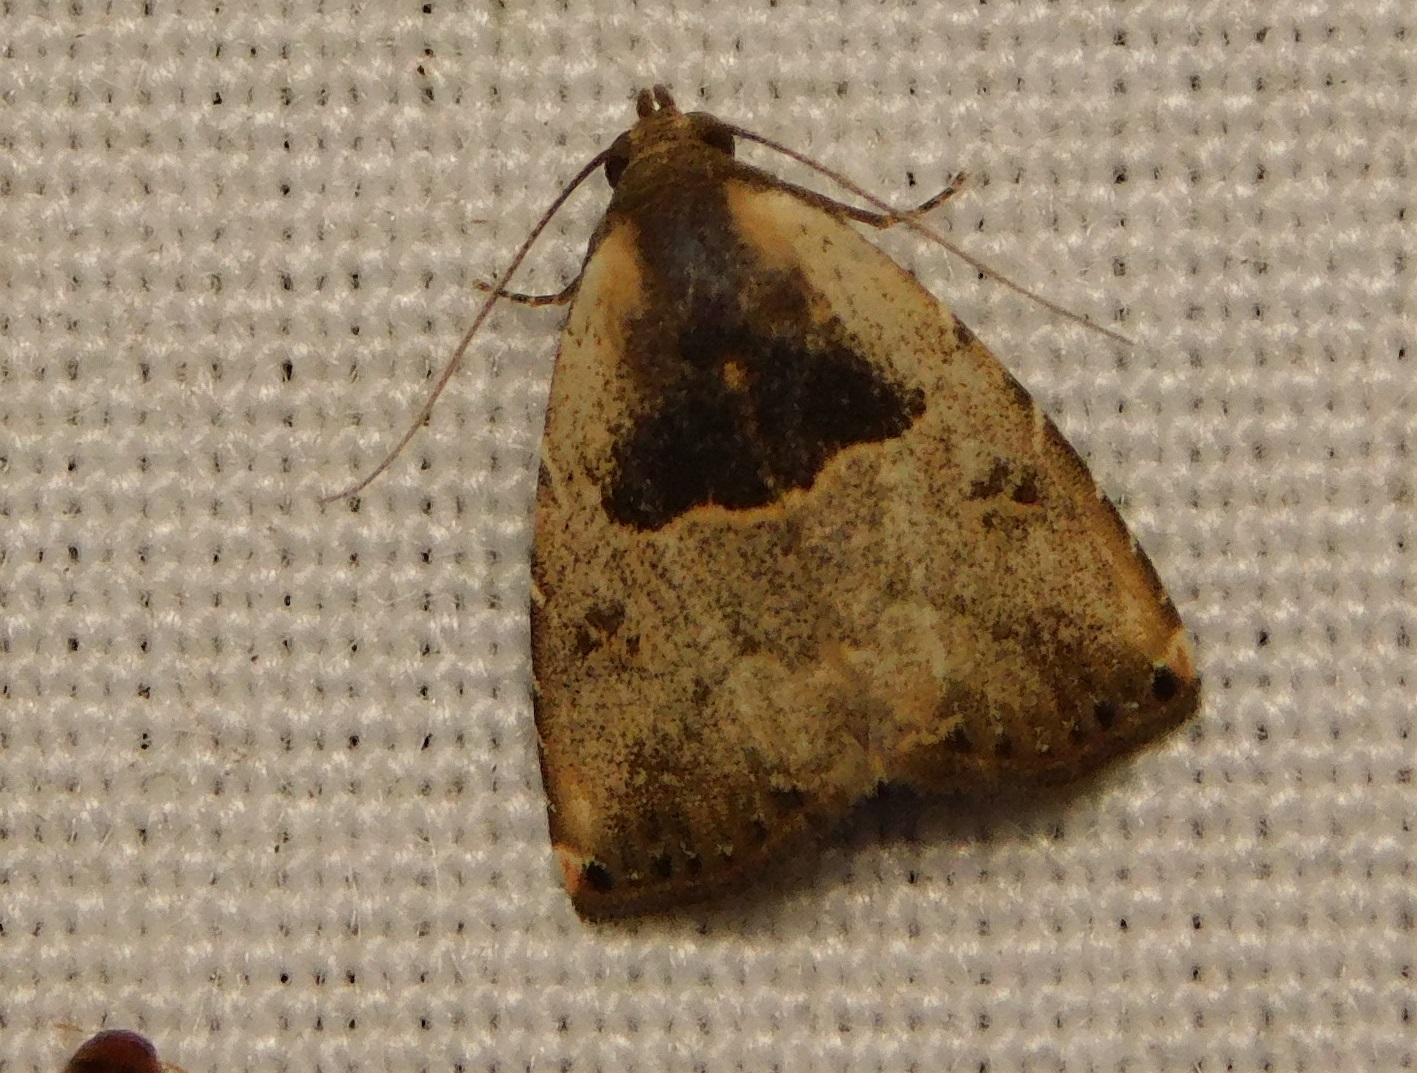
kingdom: Animalia
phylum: Arthropoda
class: Insecta
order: Lepidoptera
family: Erebidae
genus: Rivula
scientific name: Rivula cognata
